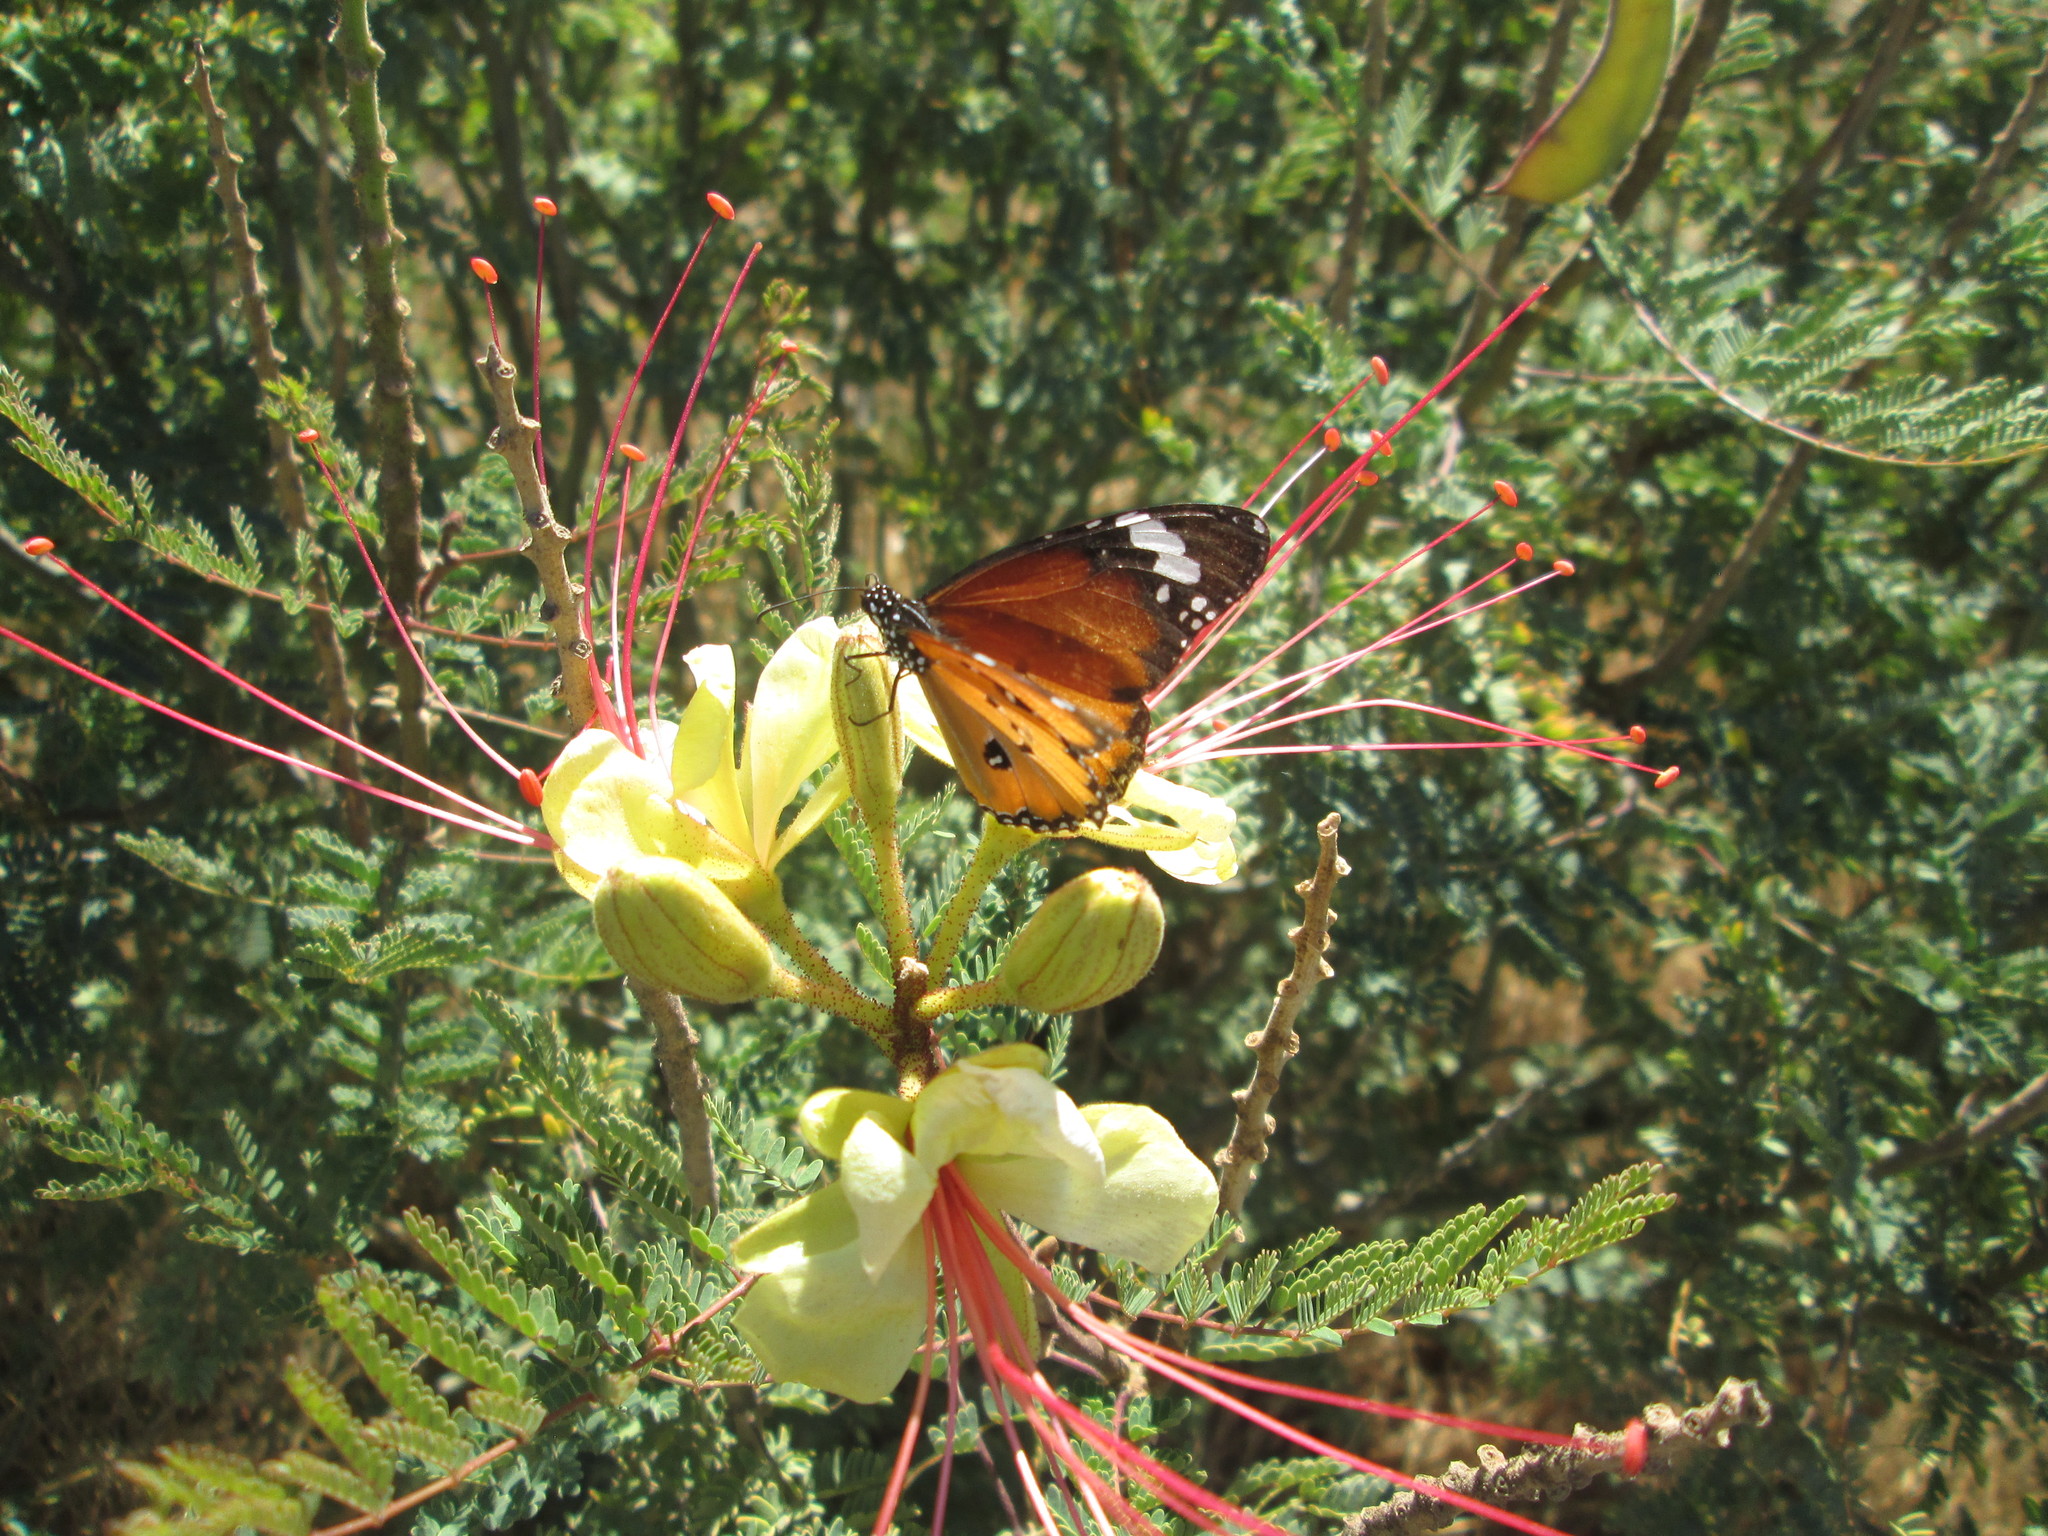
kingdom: Animalia
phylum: Arthropoda
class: Insecta
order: Lepidoptera
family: Nymphalidae
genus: Danaus
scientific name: Danaus chrysippus
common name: Plain tiger
